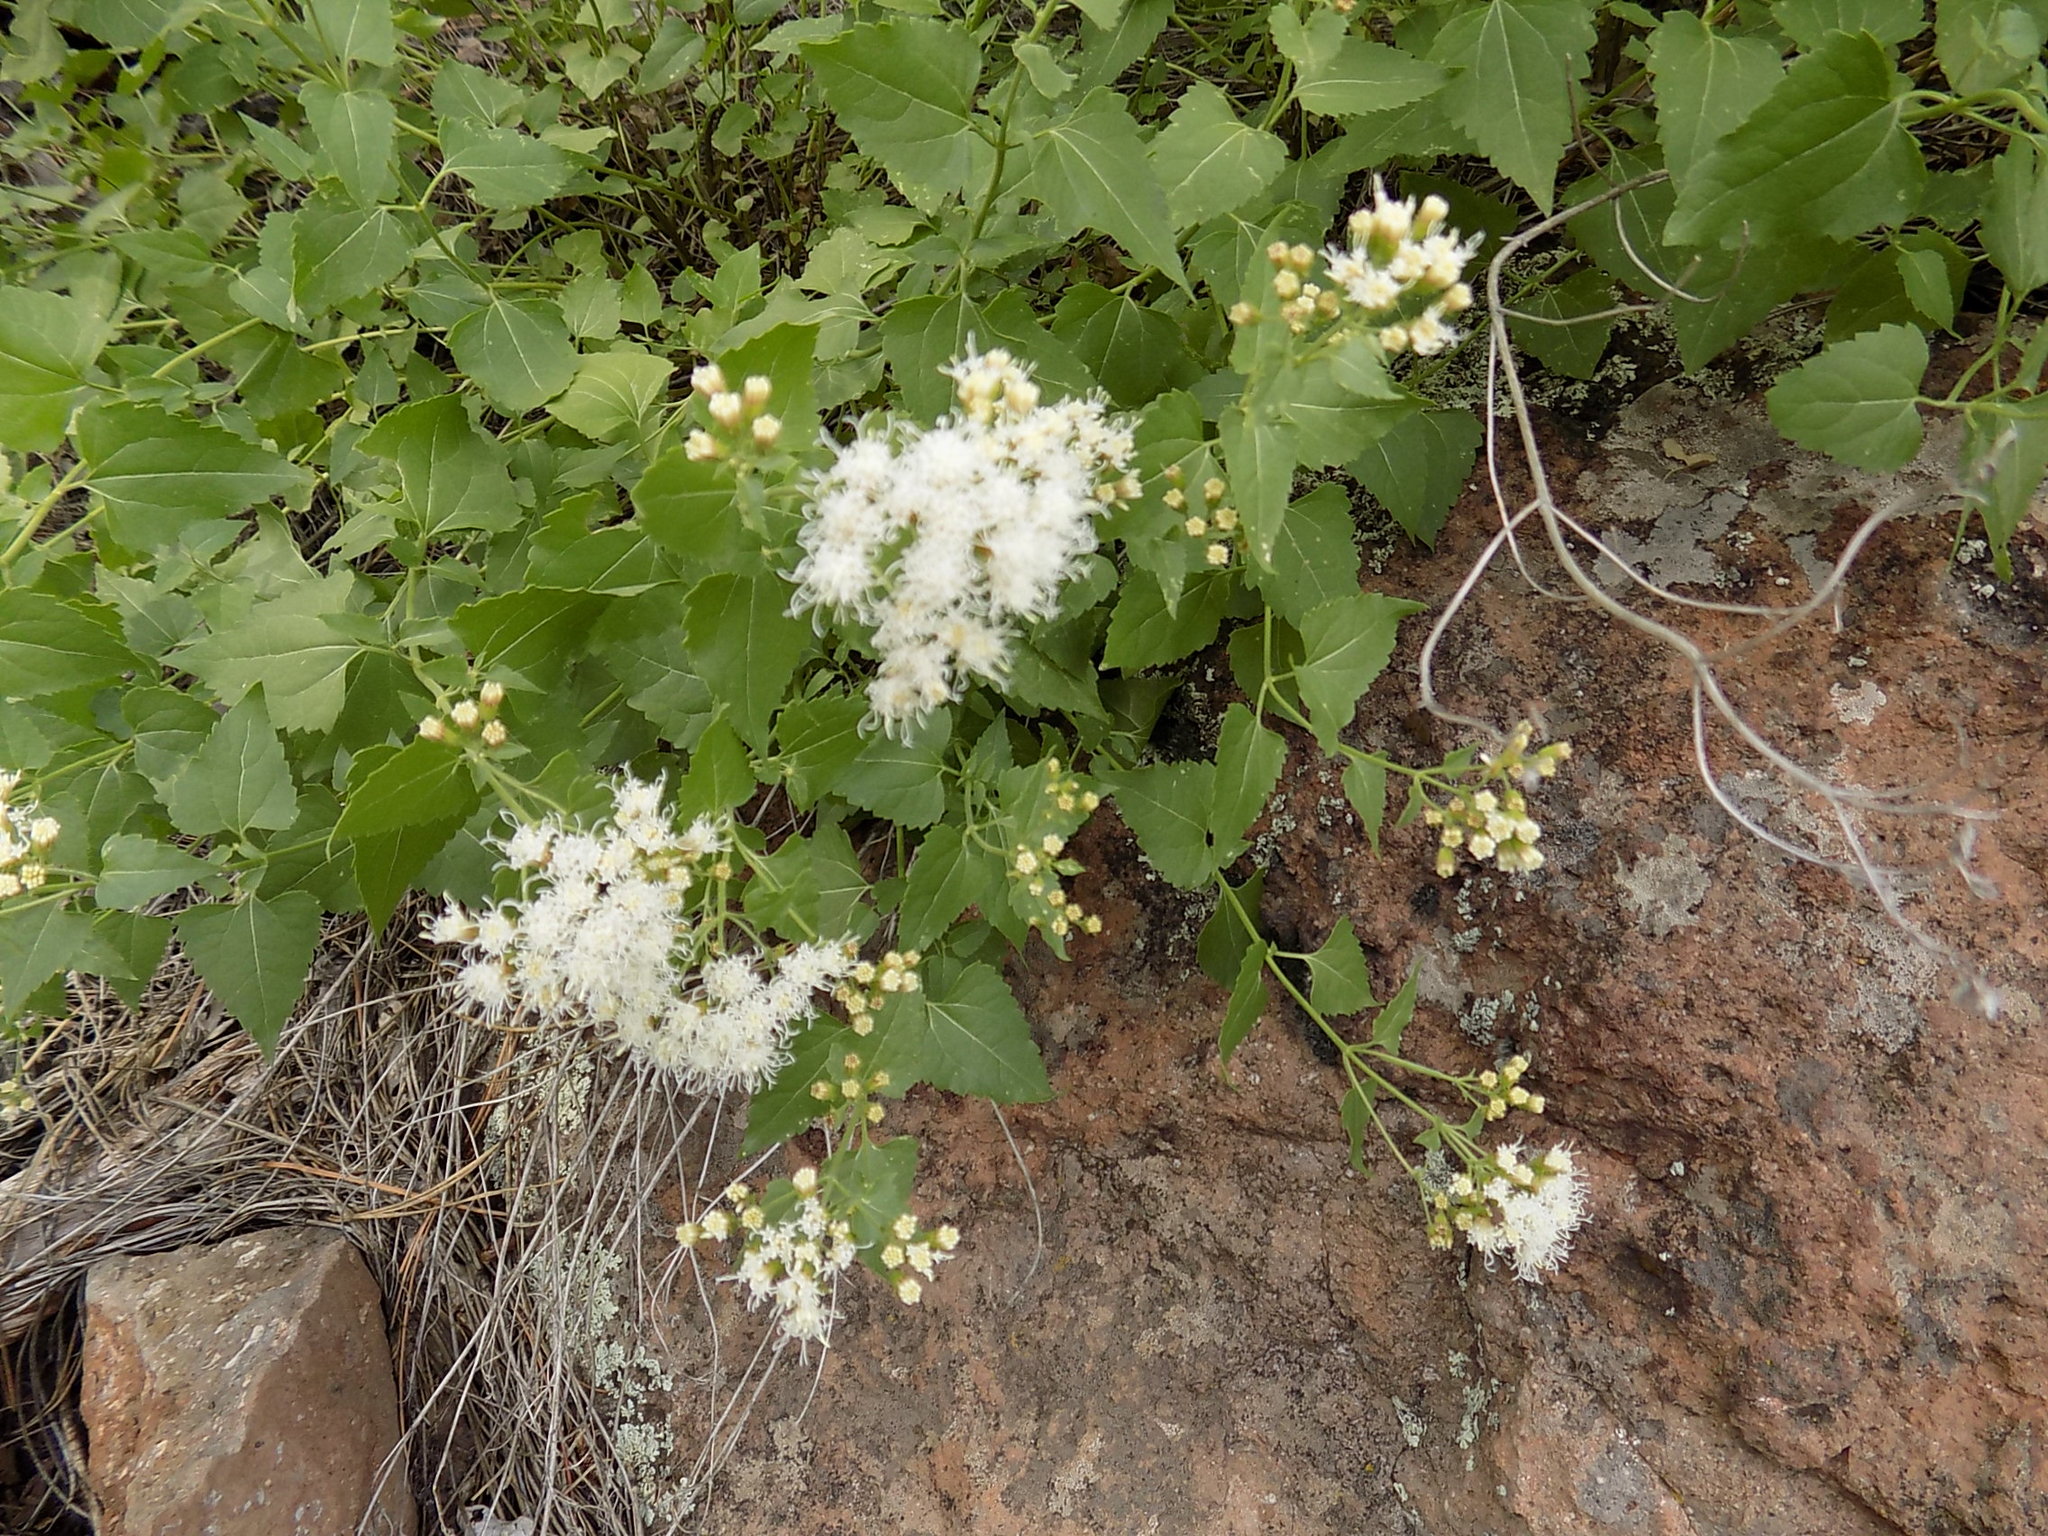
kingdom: Plantae
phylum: Tracheophyta
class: Magnoliopsida
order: Asterales
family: Asteraceae
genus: Ageratina
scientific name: Ageratina herbacea
